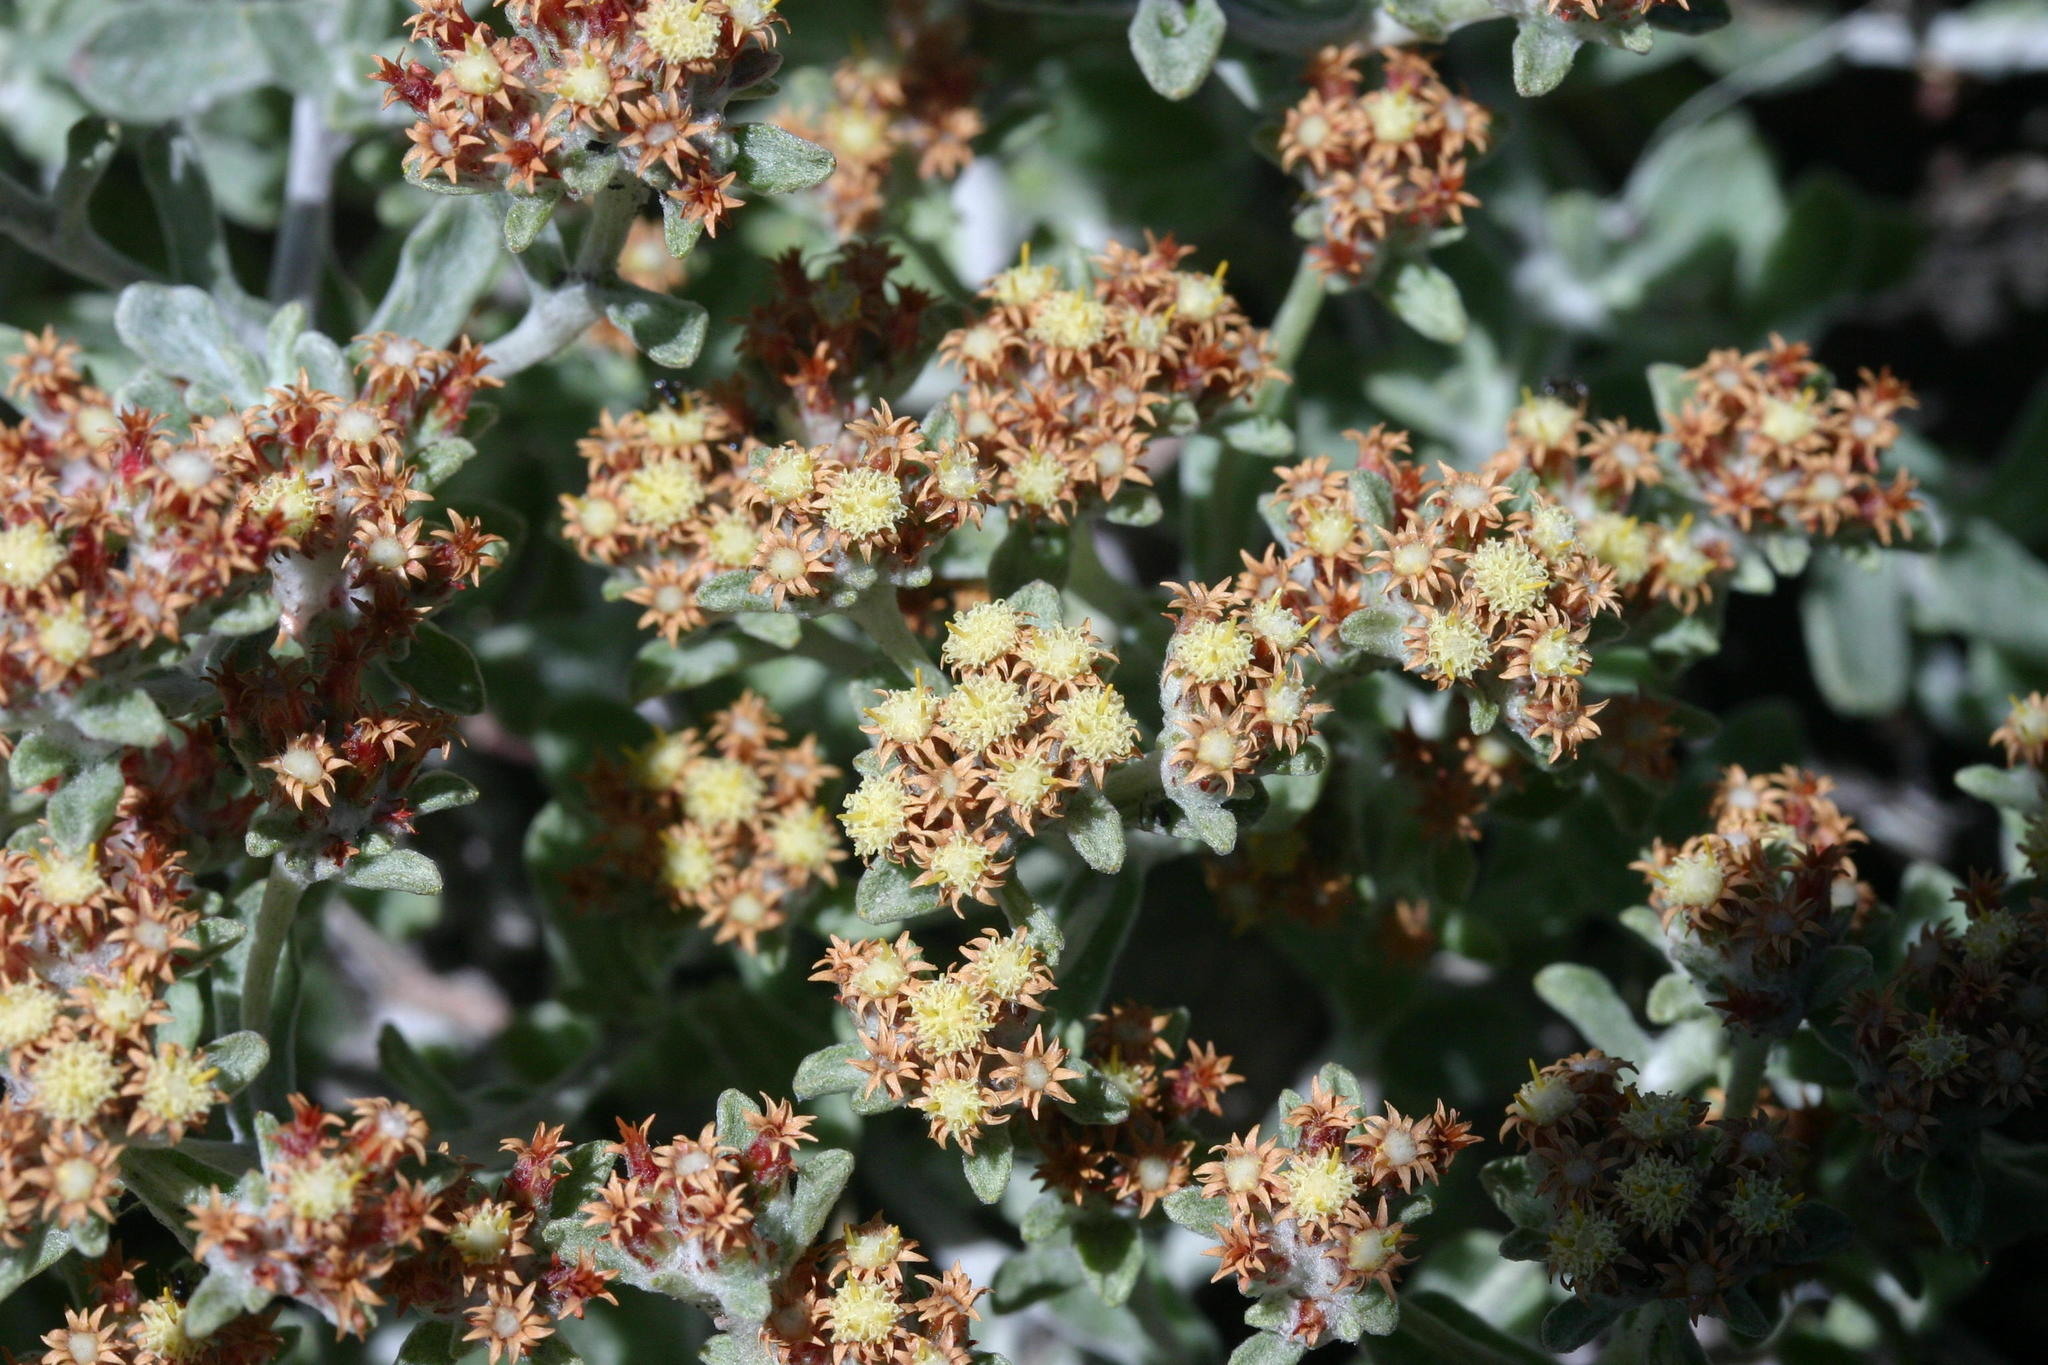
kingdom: Plantae
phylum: Tracheophyta
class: Magnoliopsida
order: Asterales
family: Asteraceae
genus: Helichrysum
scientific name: Helichrysum tinctum
